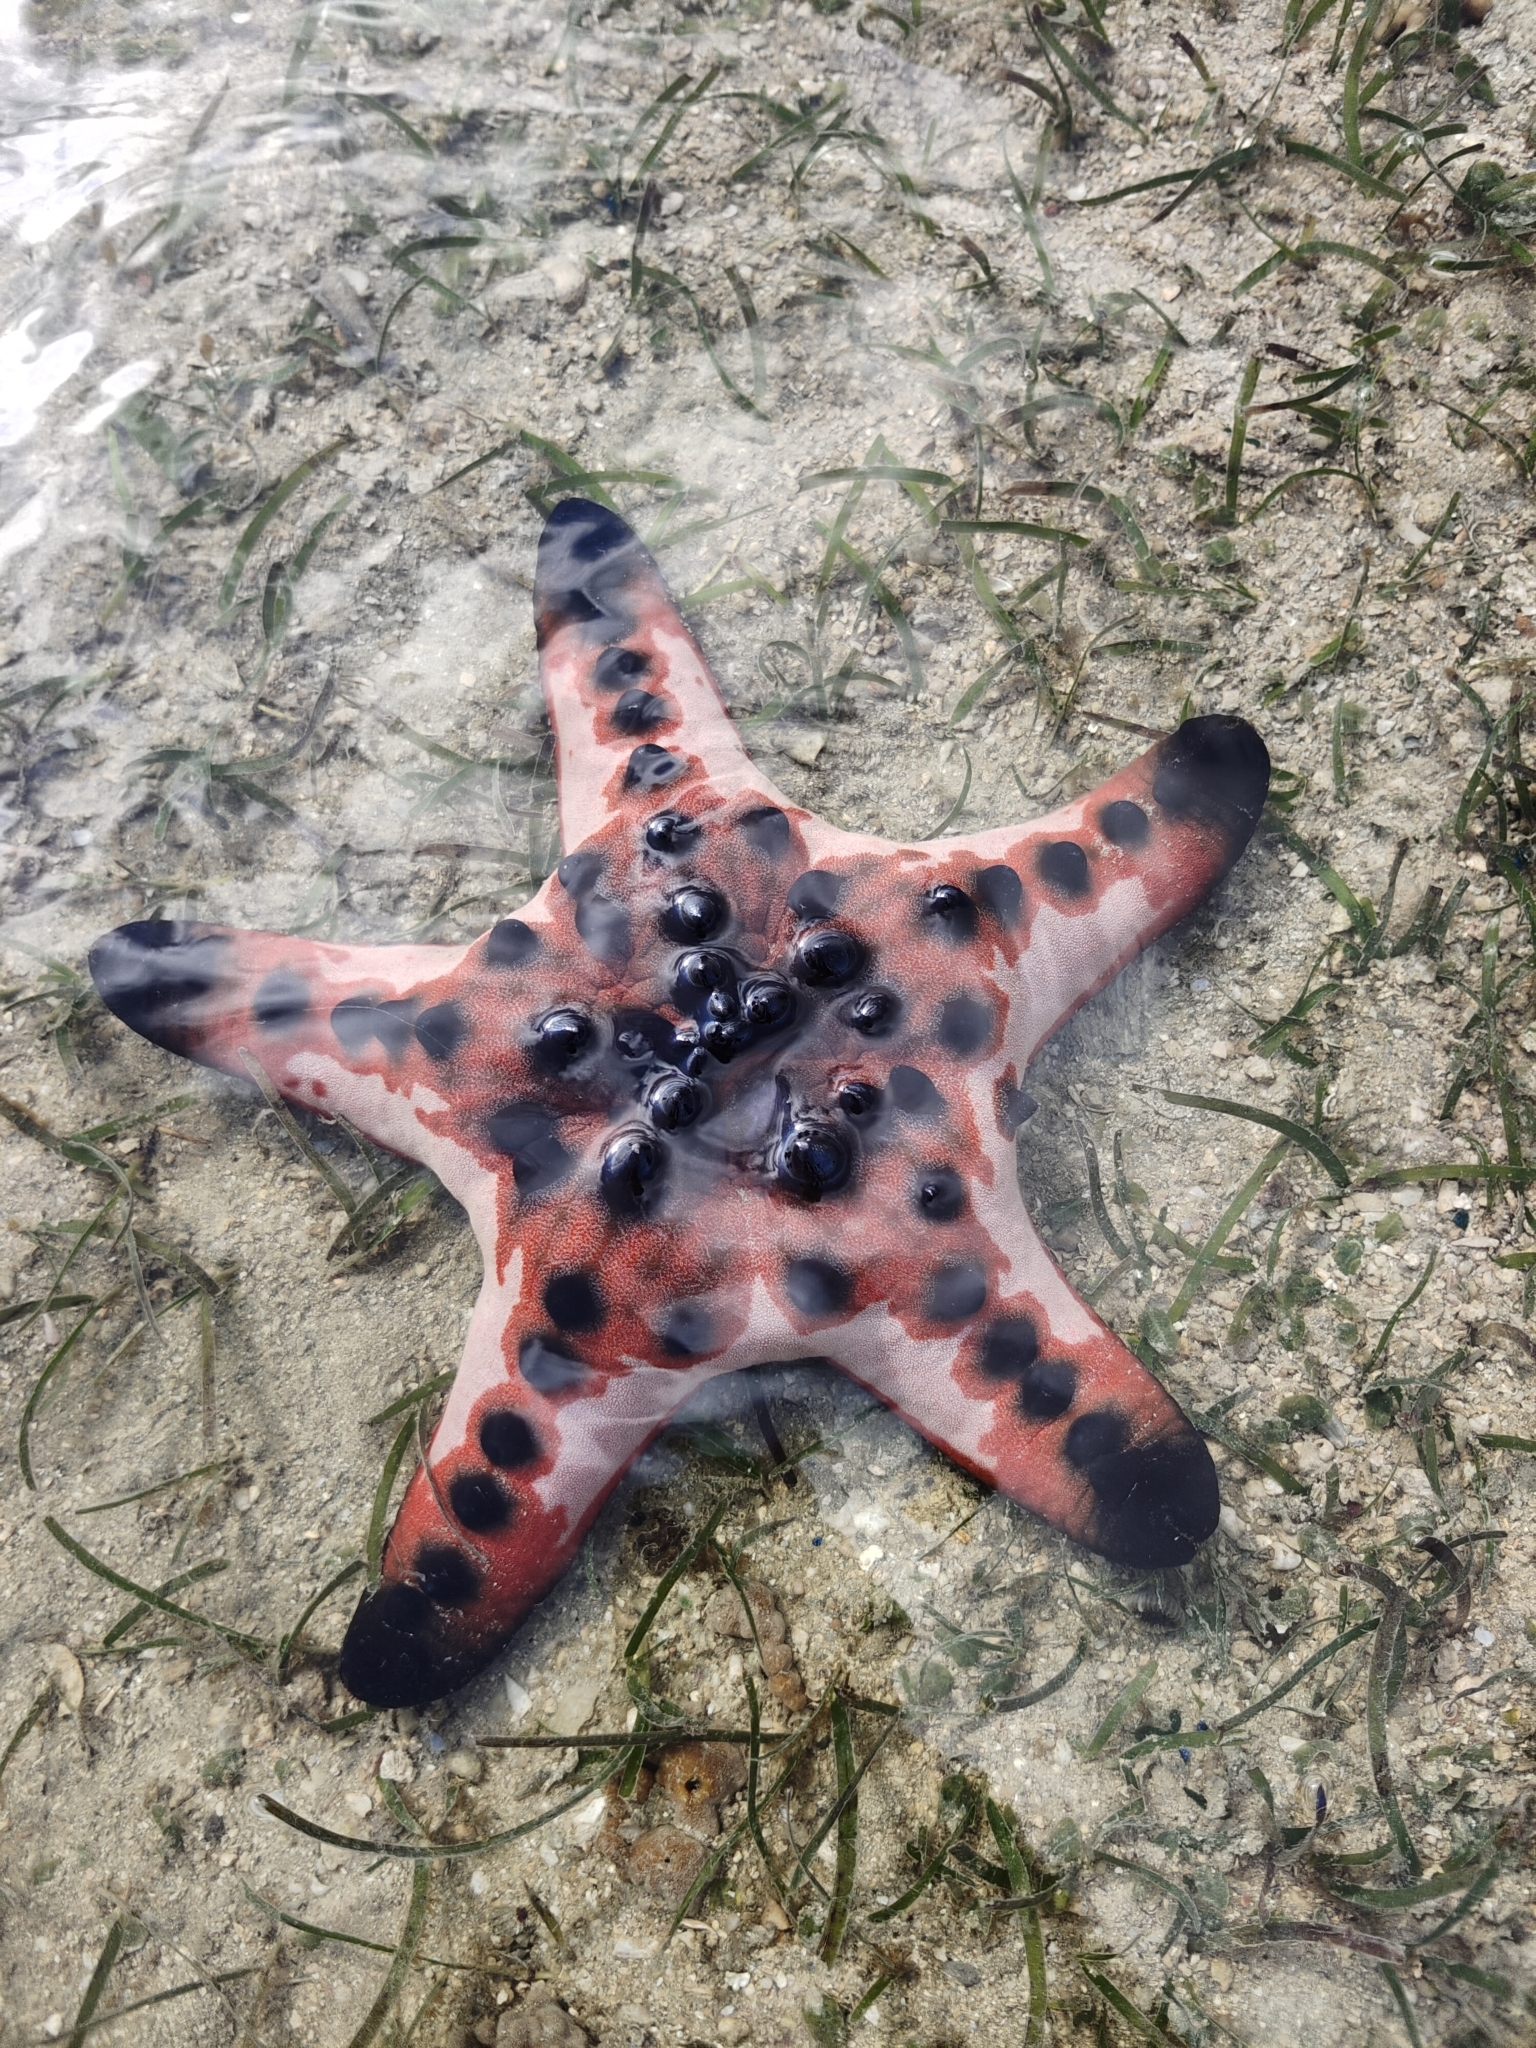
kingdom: Animalia
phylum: Echinodermata
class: Asteroidea
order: Valvatida
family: Oreasteridae
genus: Protoreaster
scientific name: Protoreaster nodosus
